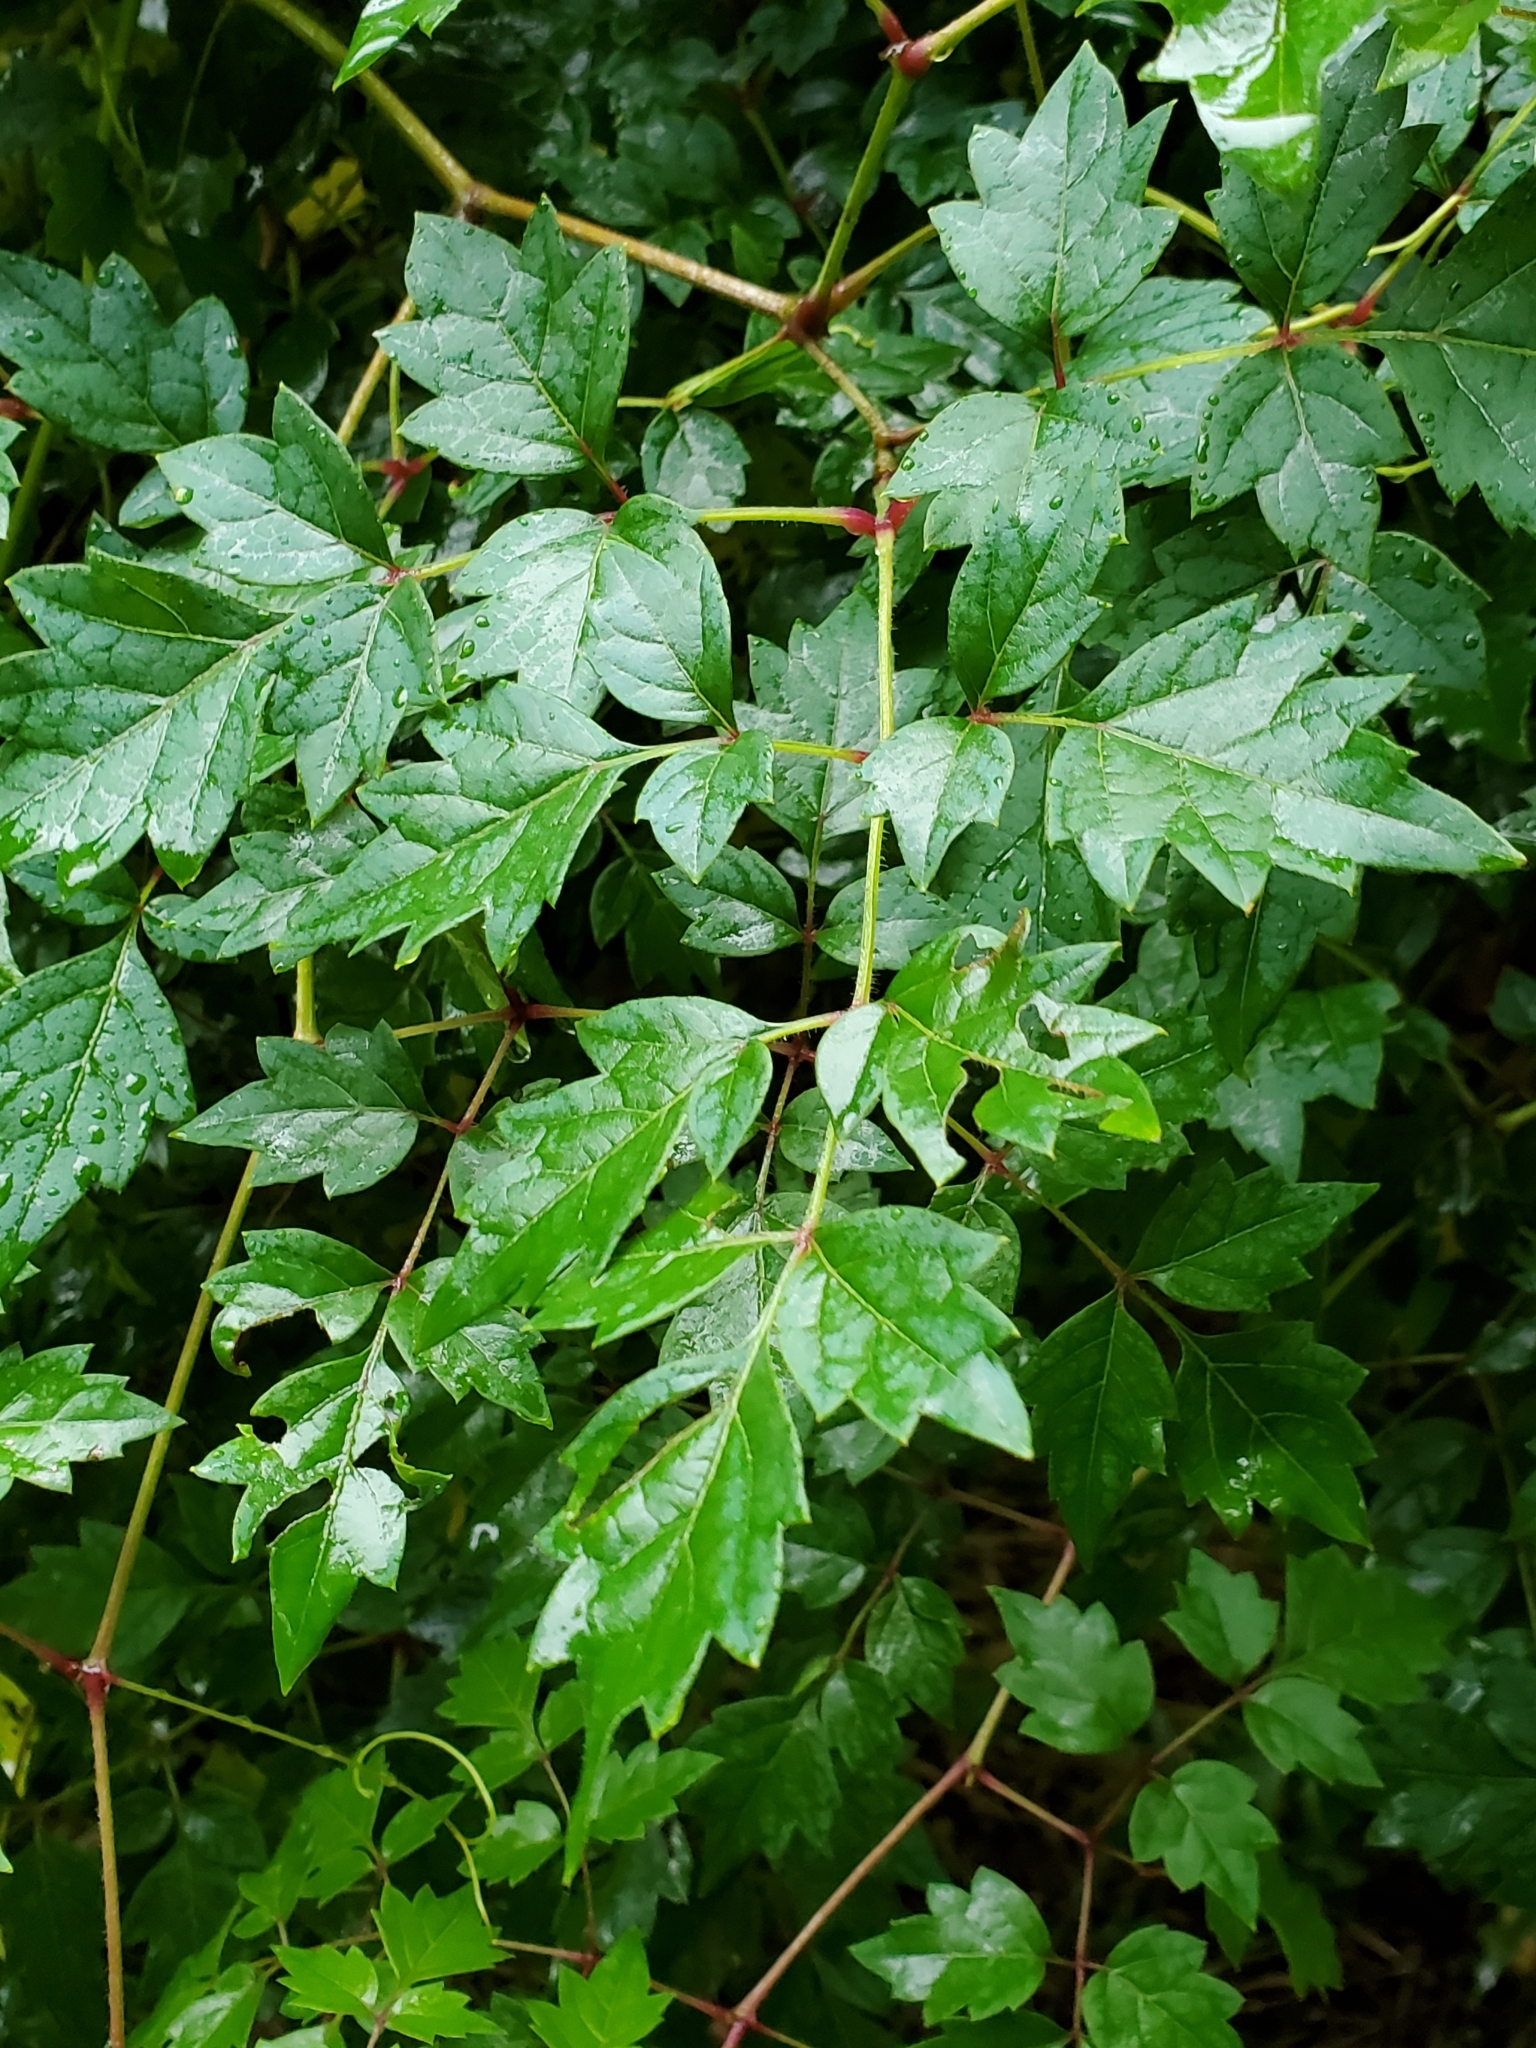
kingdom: Plantae
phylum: Tracheophyta
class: Magnoliopsida
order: Vitales
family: Vitaceae
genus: Nekemias
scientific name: Nekemias arborea
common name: Peppervine
